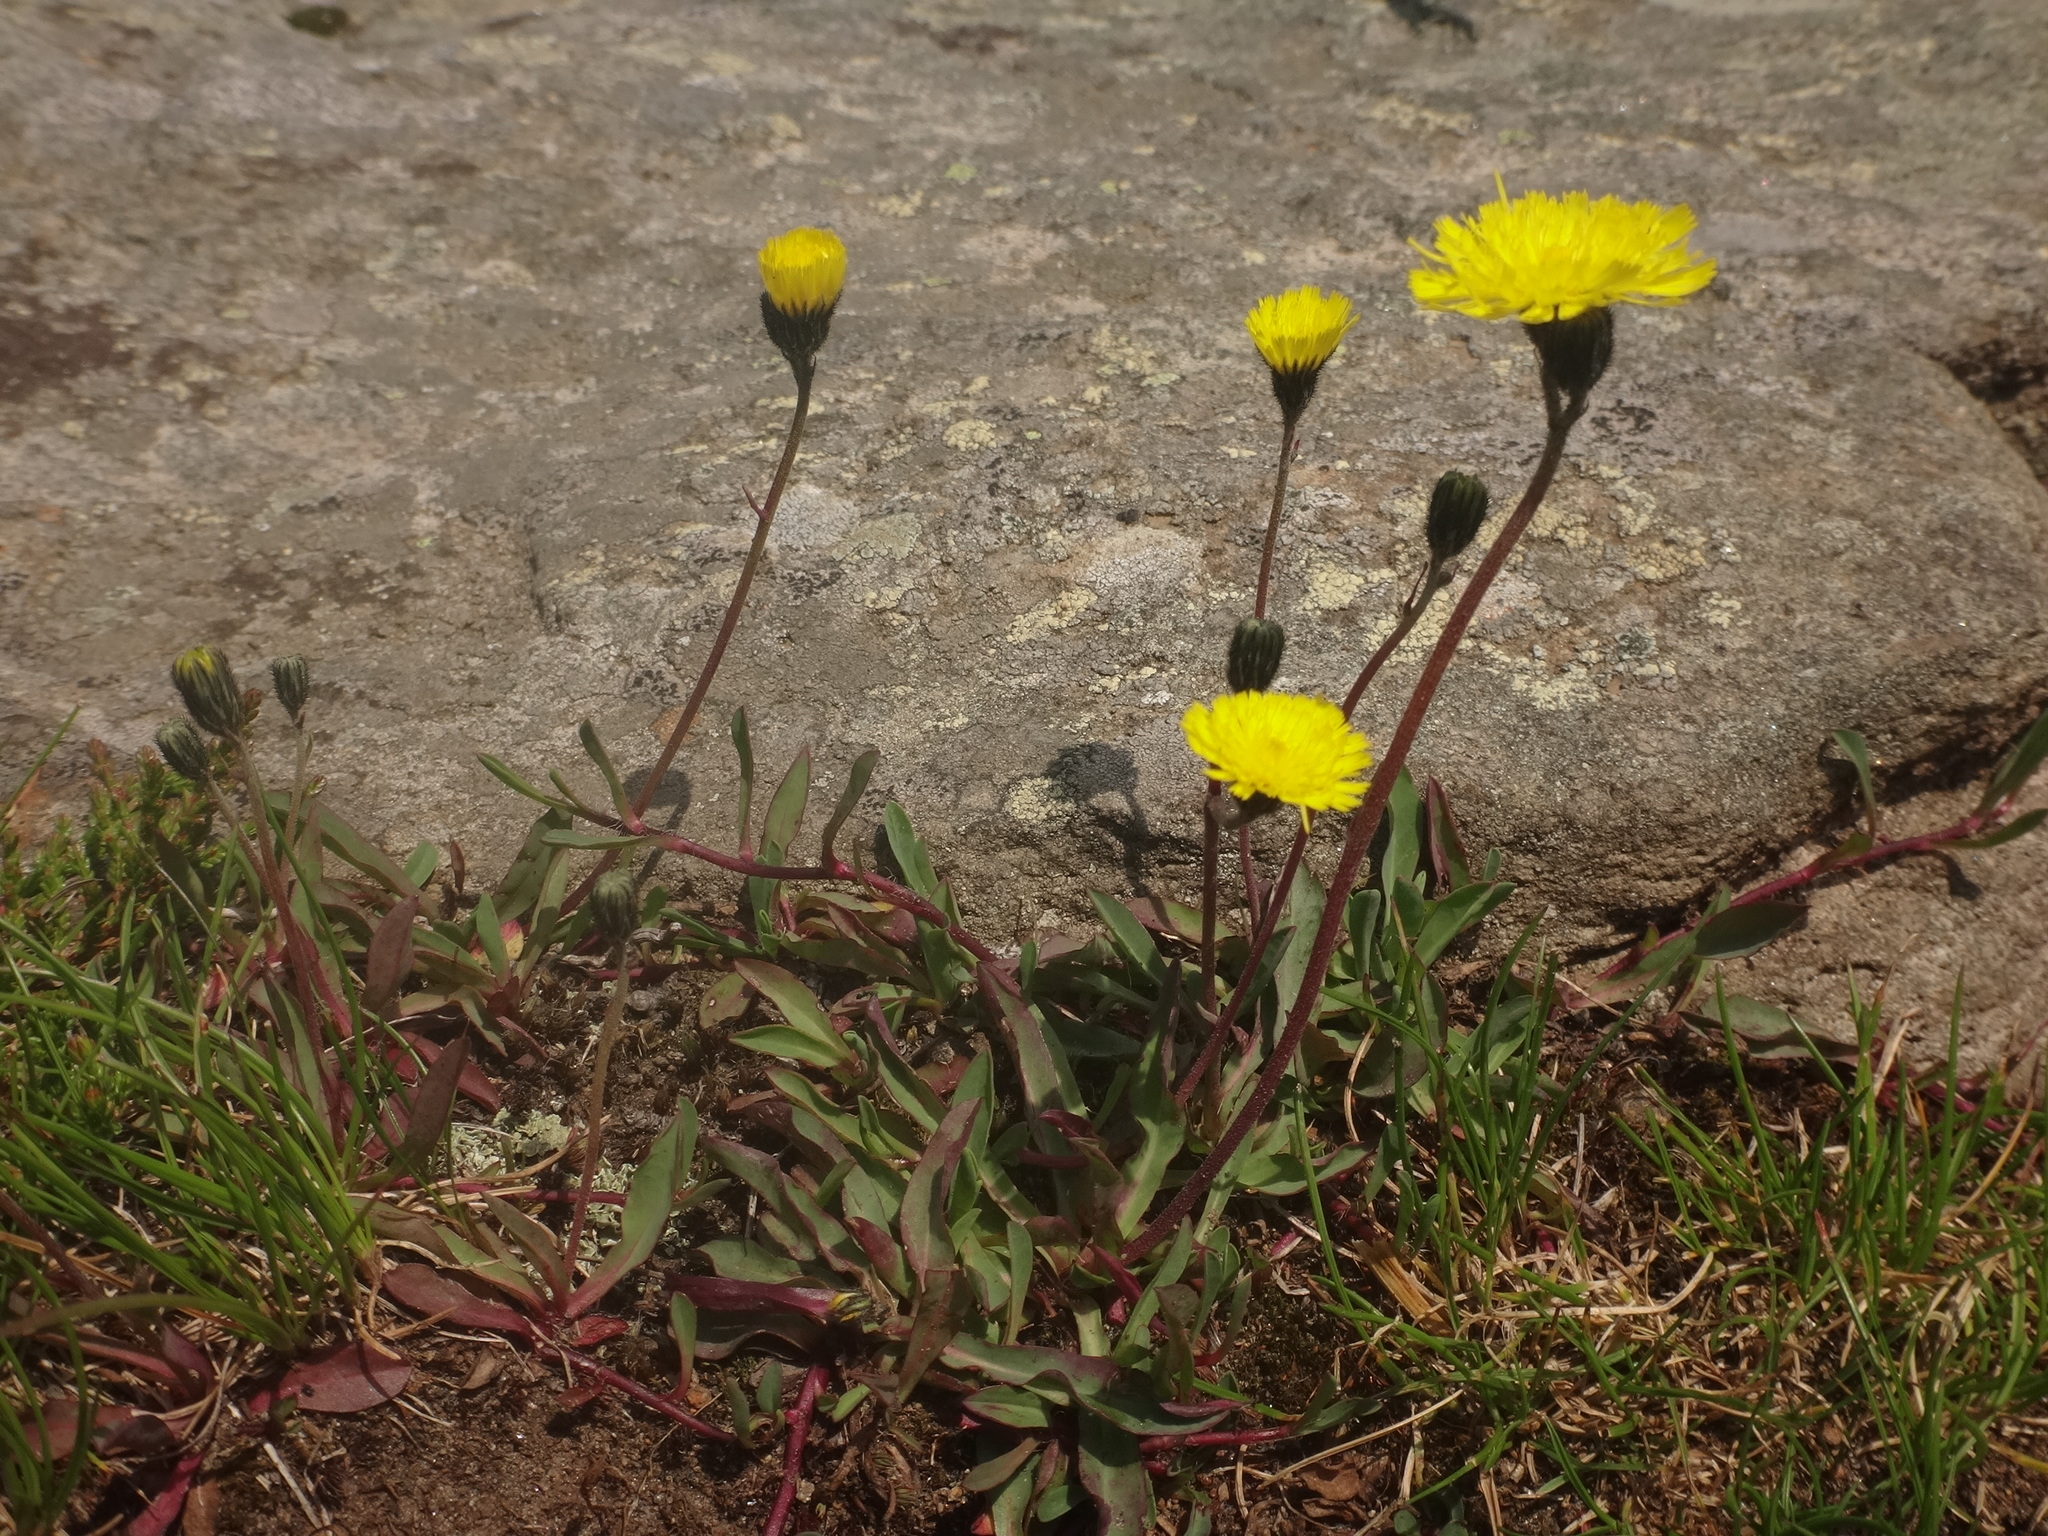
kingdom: Plantae
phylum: Tracheophyta
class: Magnoliopsida
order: Asterales
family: Asteraceae
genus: Pilosella
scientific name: Pilosella lactucella
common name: Glaucous fox-and-cubs
